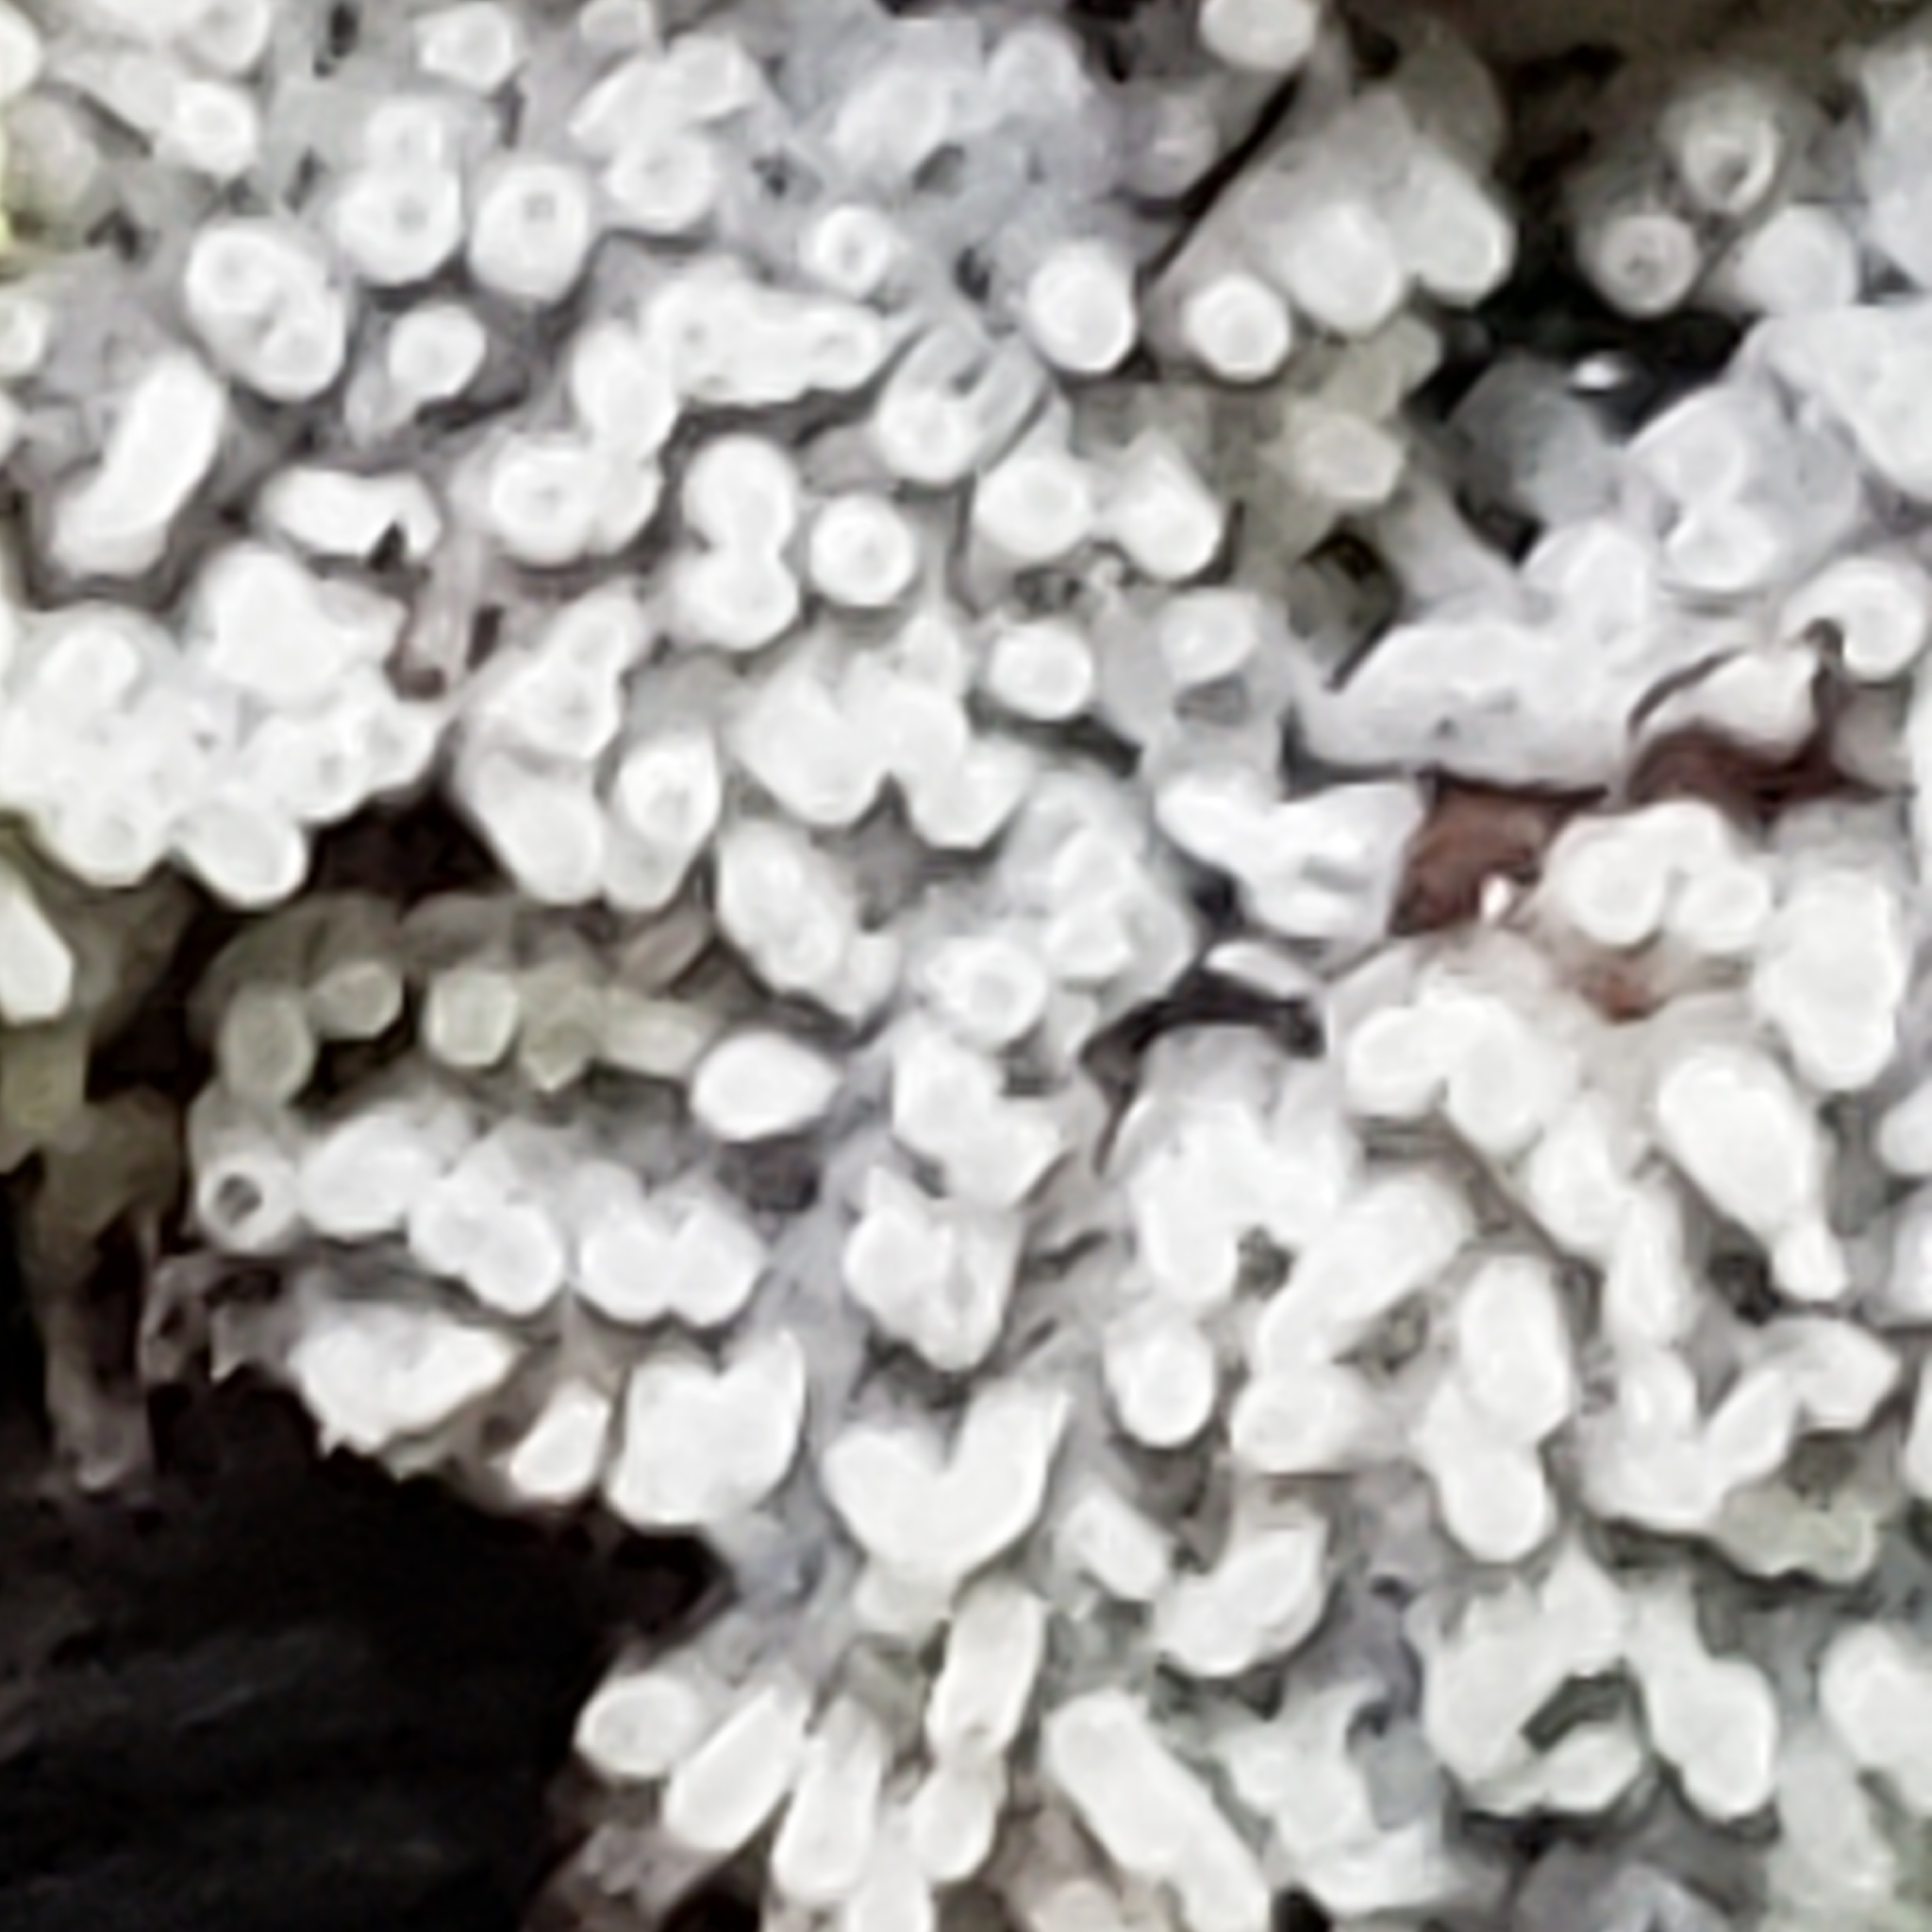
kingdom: Protozoa
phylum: Mycetozoa
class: Protosteliomycetes
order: Ceratiomyxales
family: Ceratiomyxaceae
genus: Ceratiomyxa
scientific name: Ceratiomyxa fruticulosa
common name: Honeycomb coral slime mold
